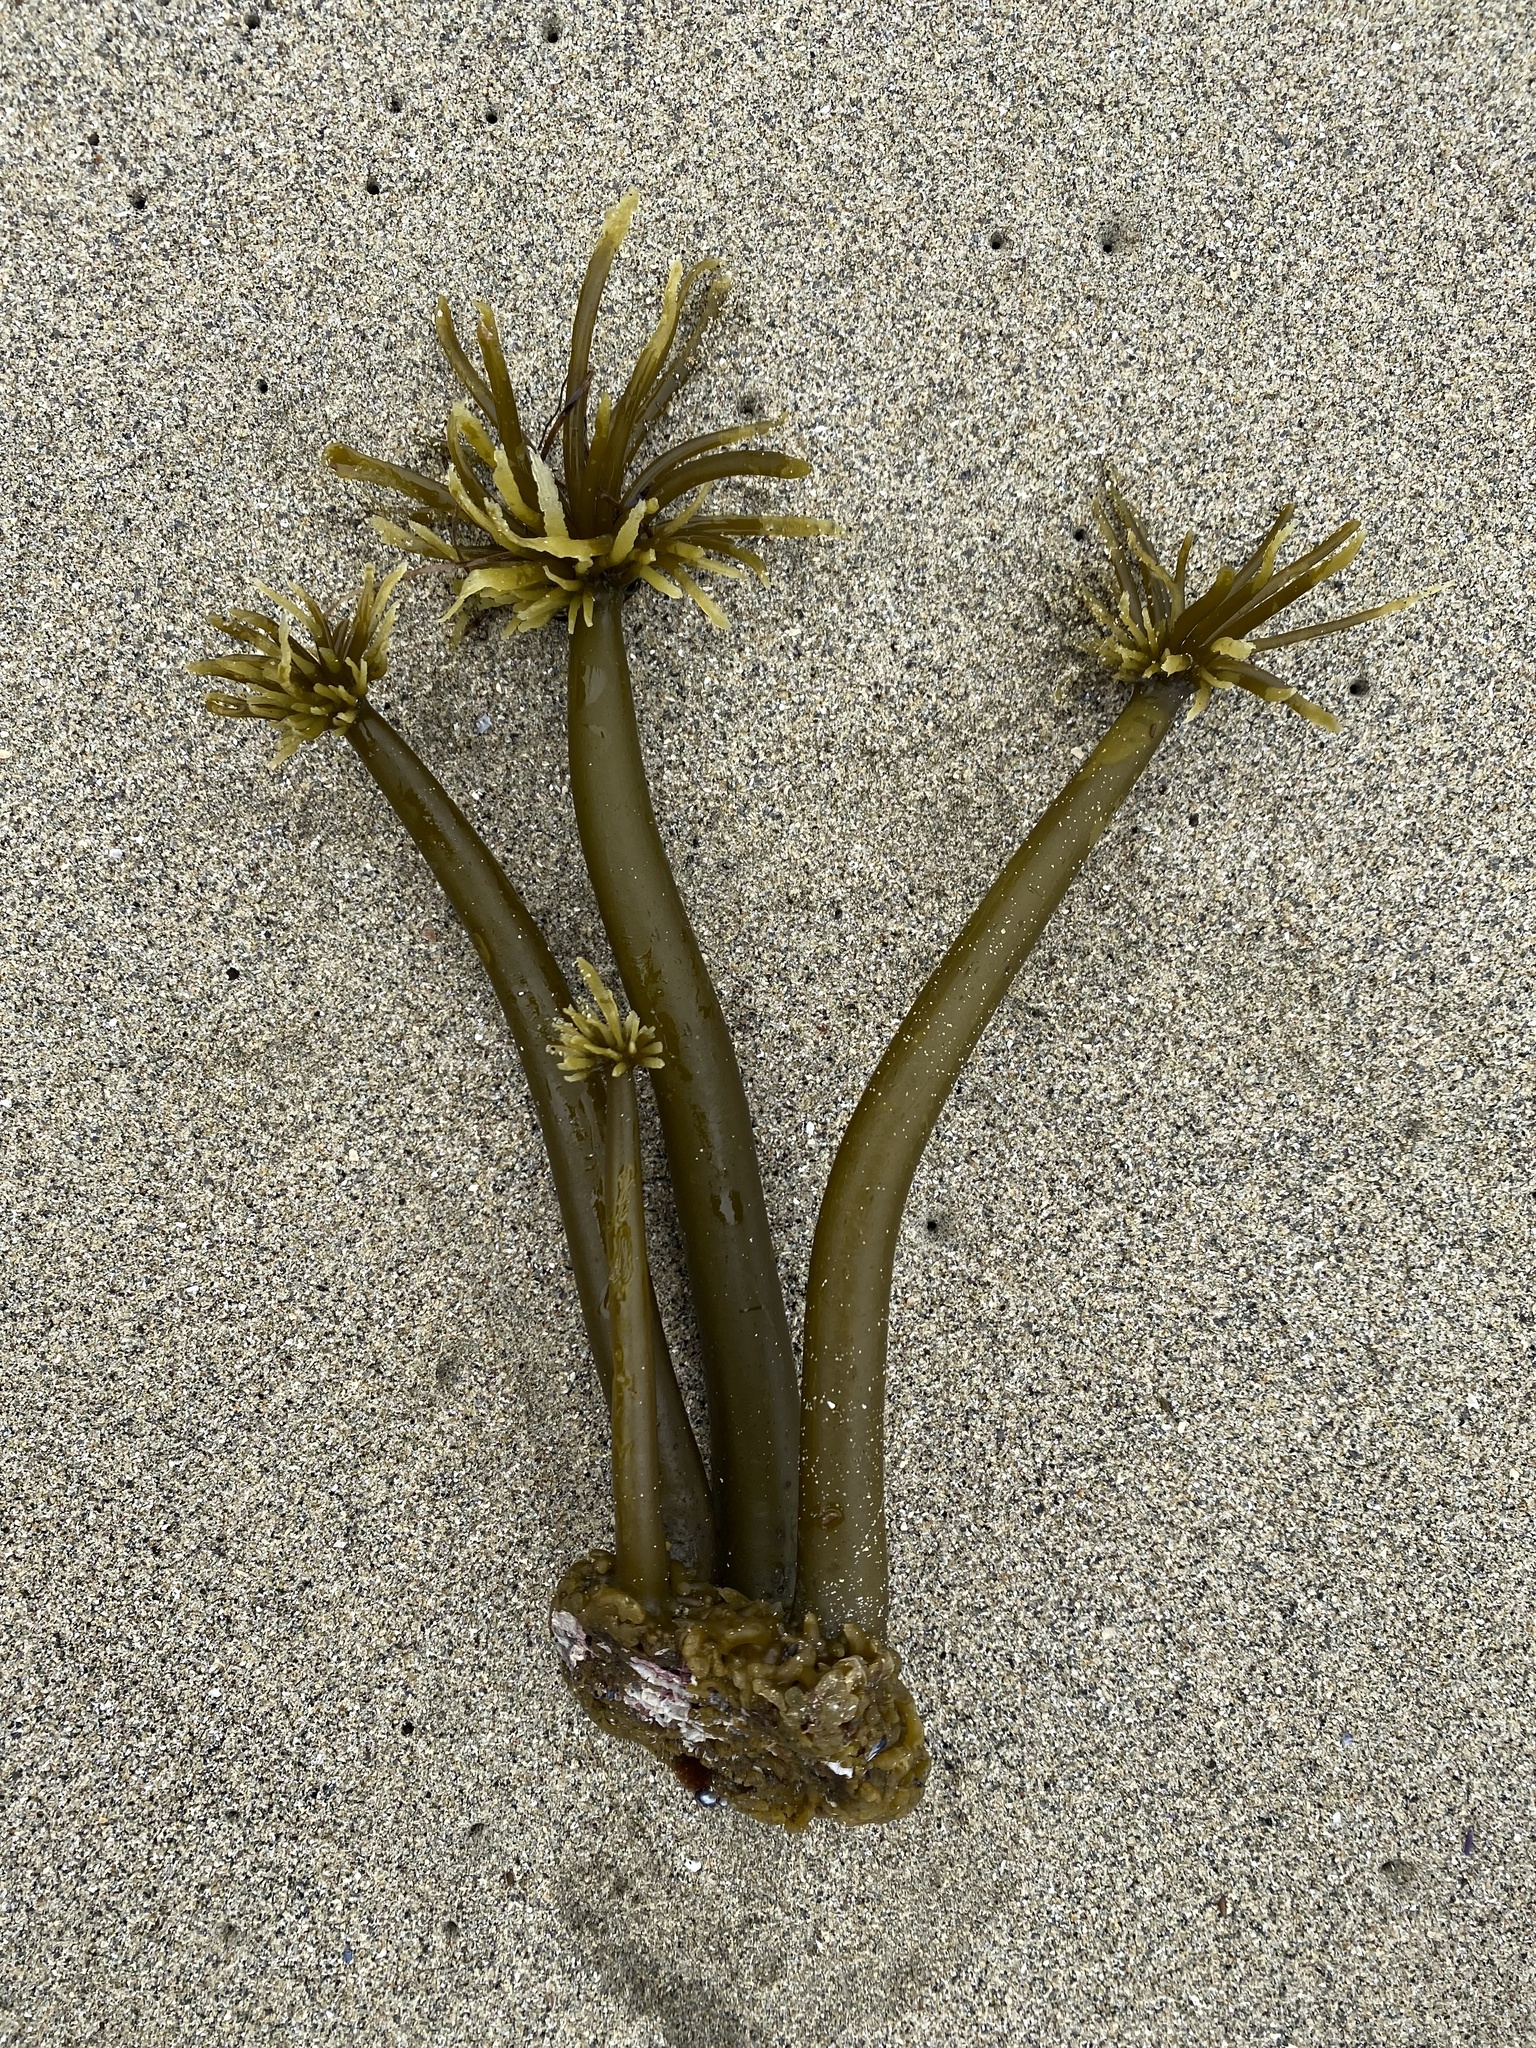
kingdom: Chromista
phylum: Ochrophyta
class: Phaeophyceae
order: Laminariales
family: Laminariaceae
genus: Postelsia
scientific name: Postelsia palmiformis
